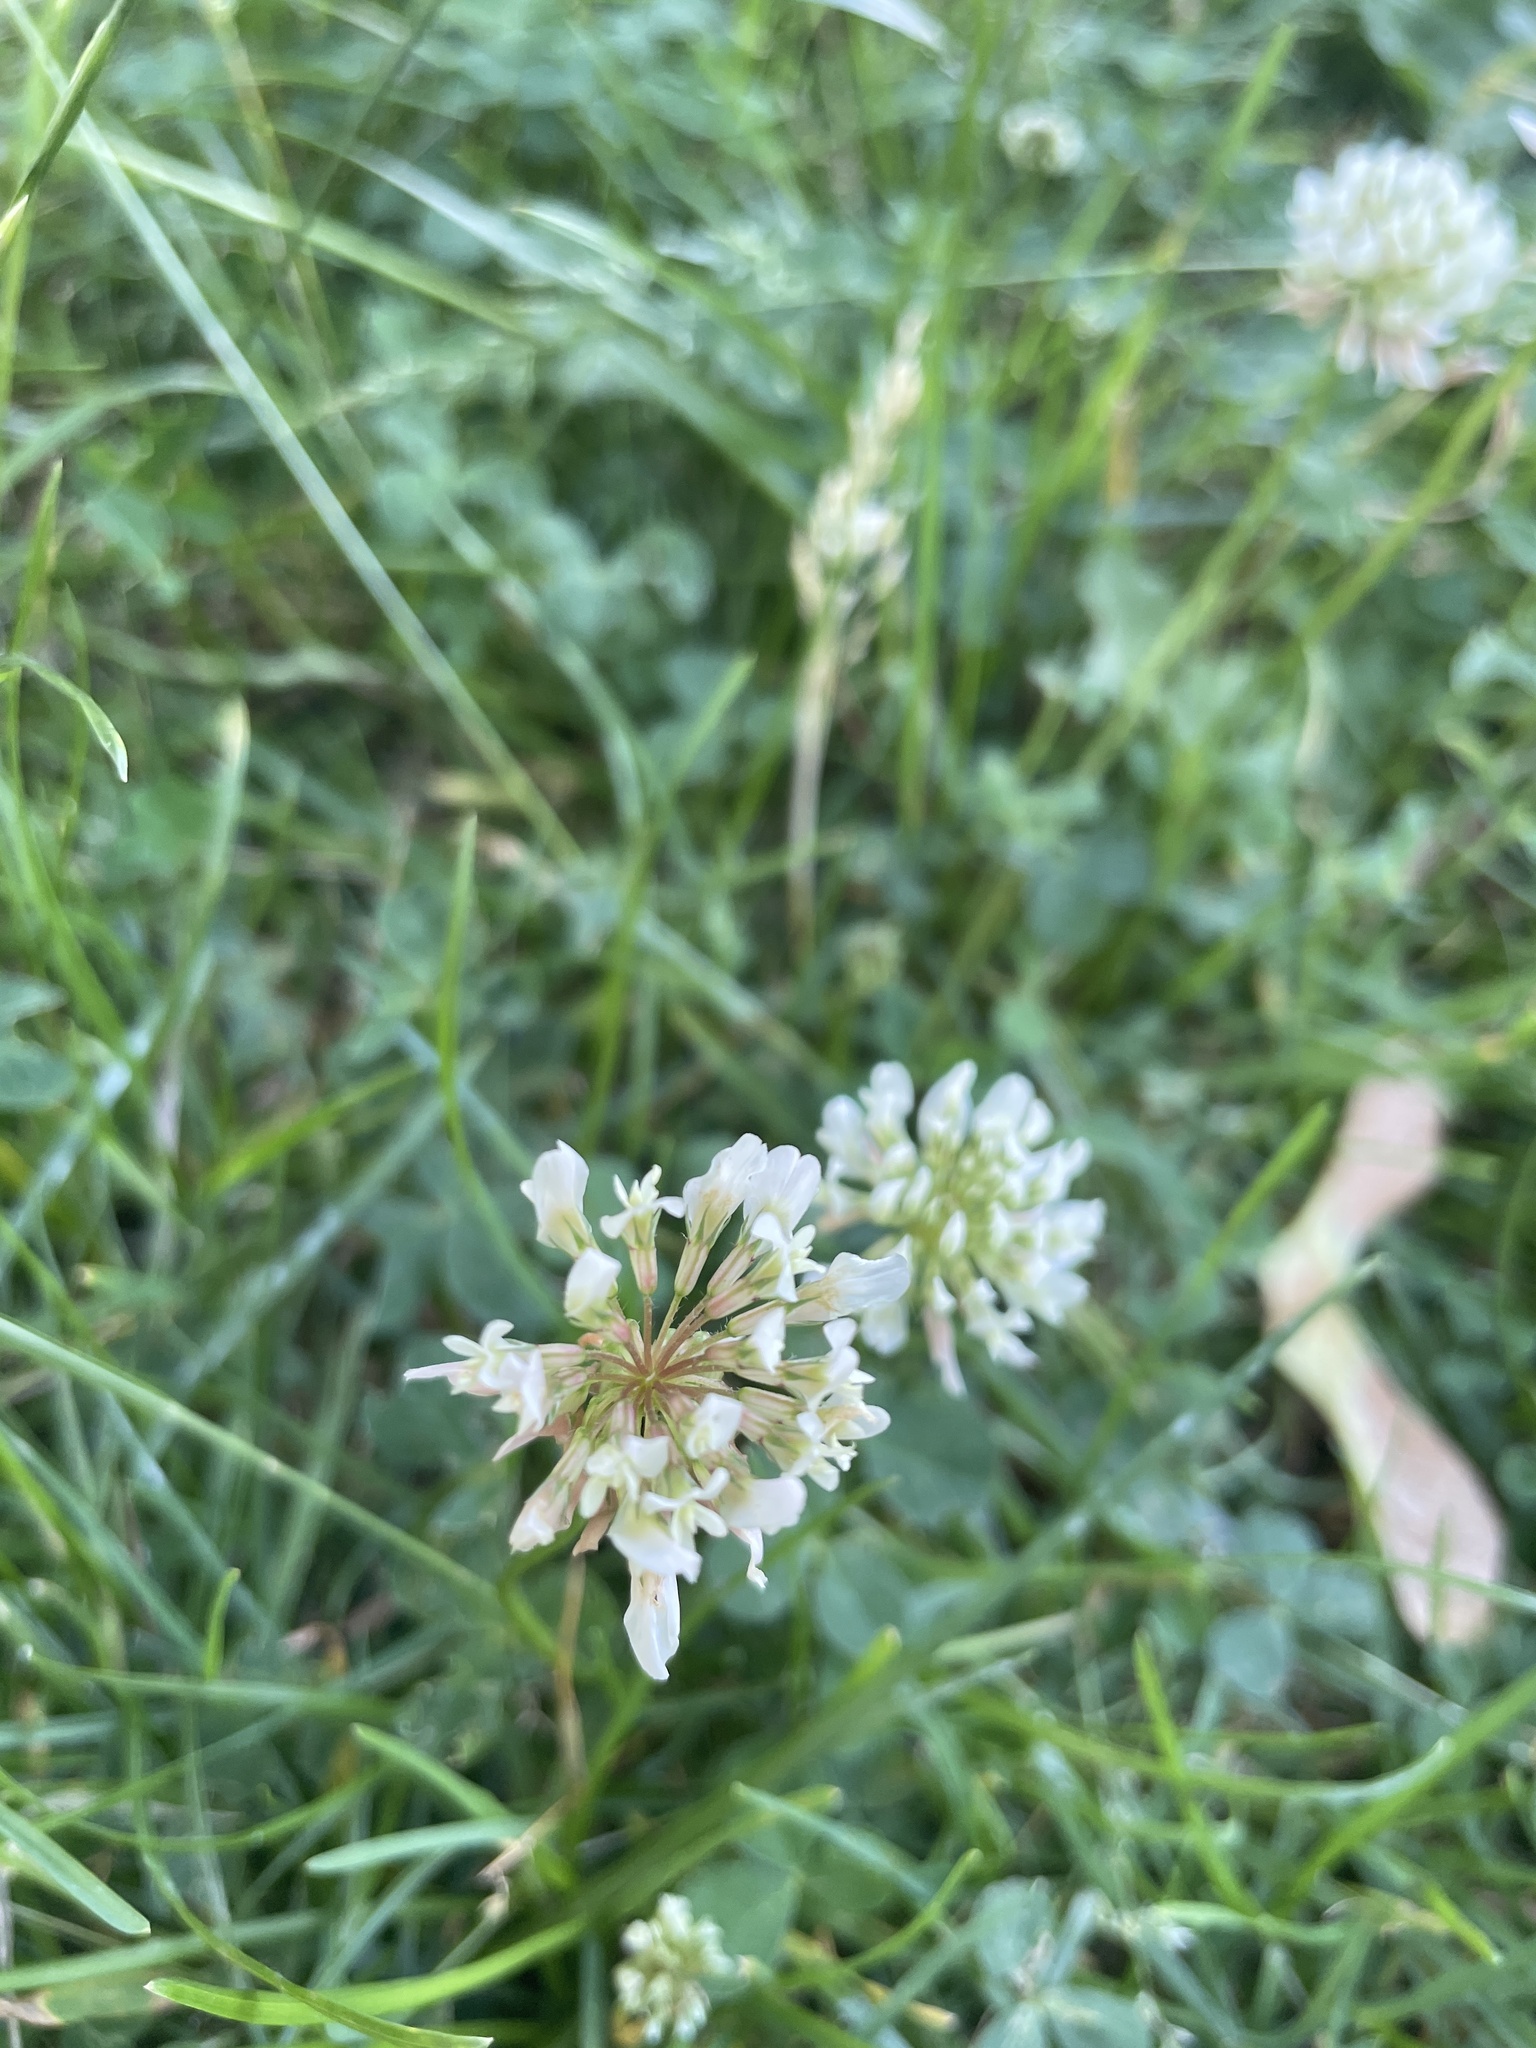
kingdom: Plantae
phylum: Tracheophyta
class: Magnoliopsida
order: Fabales
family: Fabaceae
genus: Trifolium
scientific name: Trifolium repens
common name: White clover
